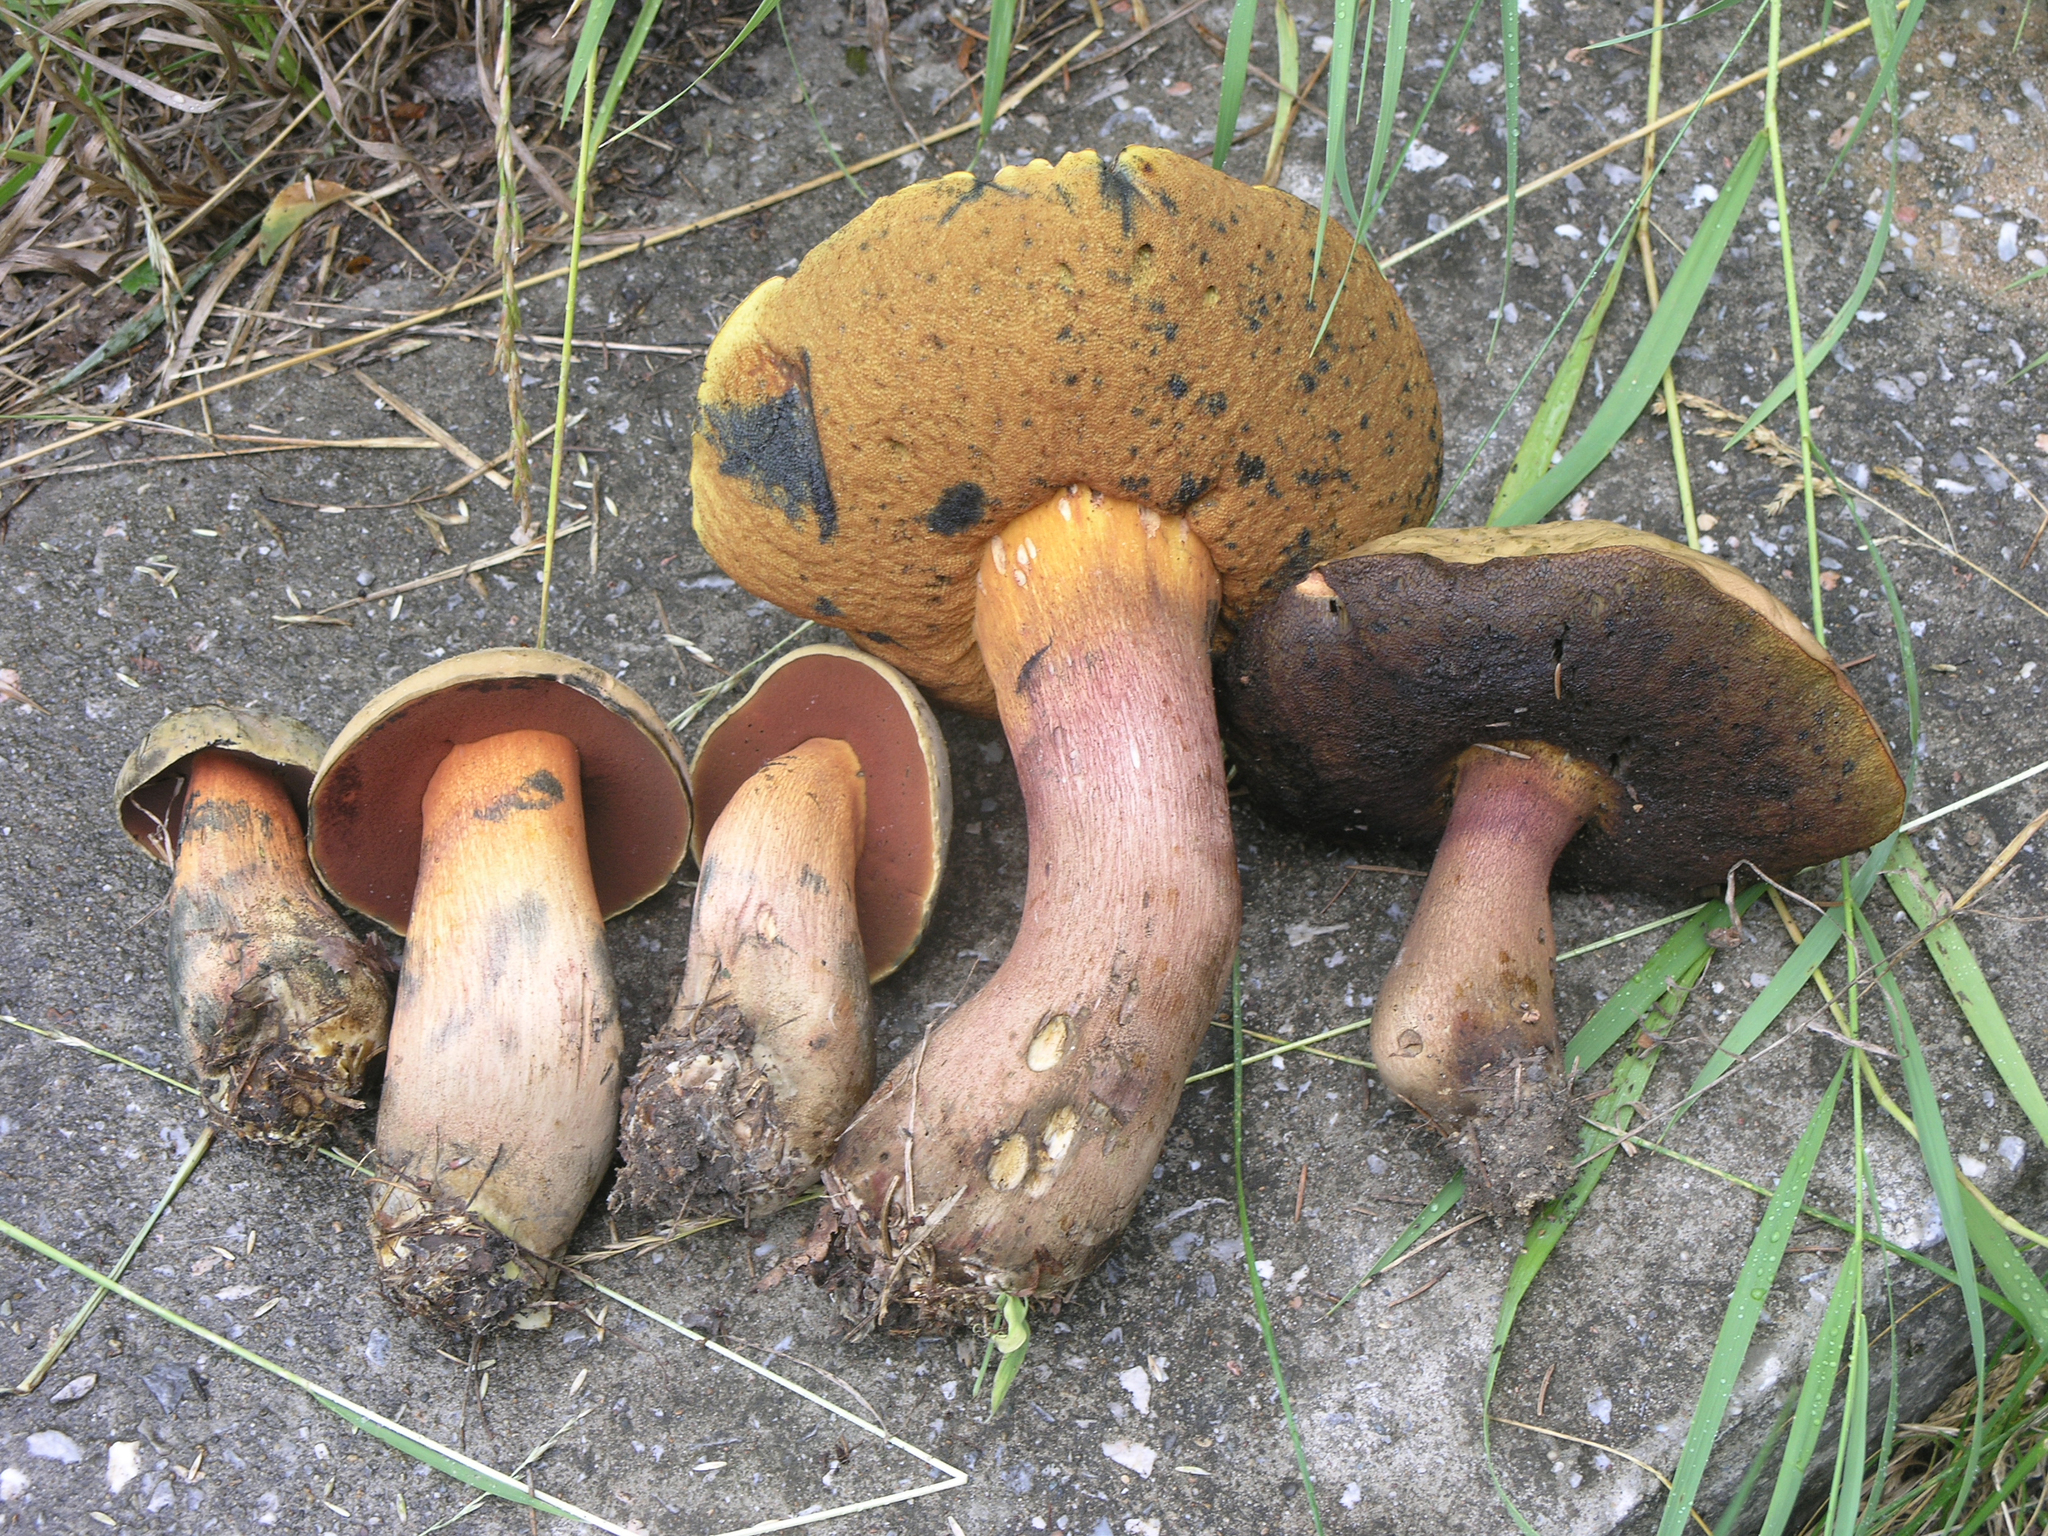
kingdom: Fungi
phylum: Basidiomycota
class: Agaricomycetes
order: Boletales
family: Boletaceae
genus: Suillellus
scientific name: Suillellus luridus
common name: Lurid bolete
